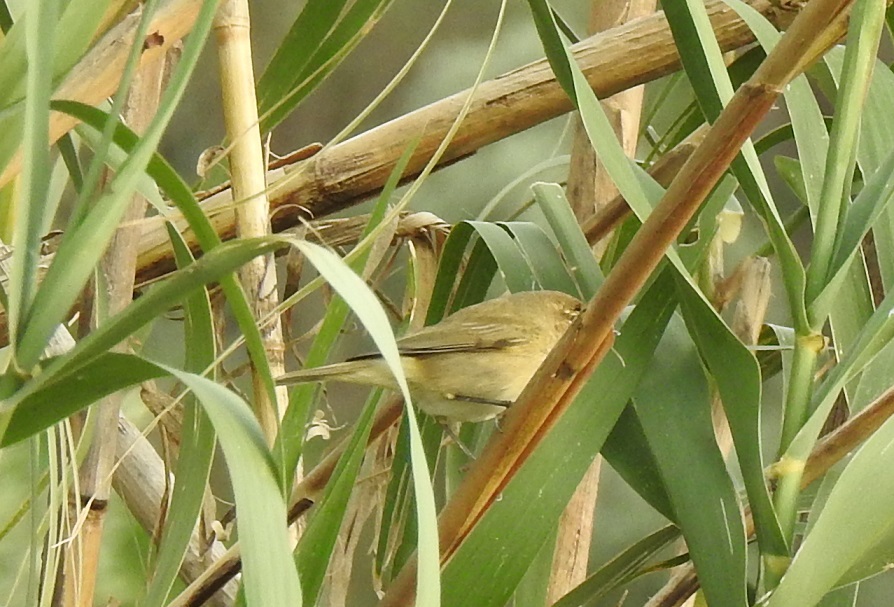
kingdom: Animalia
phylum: Chordata
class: Aves
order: Passeriformes
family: Phylloscopidae
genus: Phylloscopus
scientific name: Phylloscopus collybita
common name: Common chiffchaff
